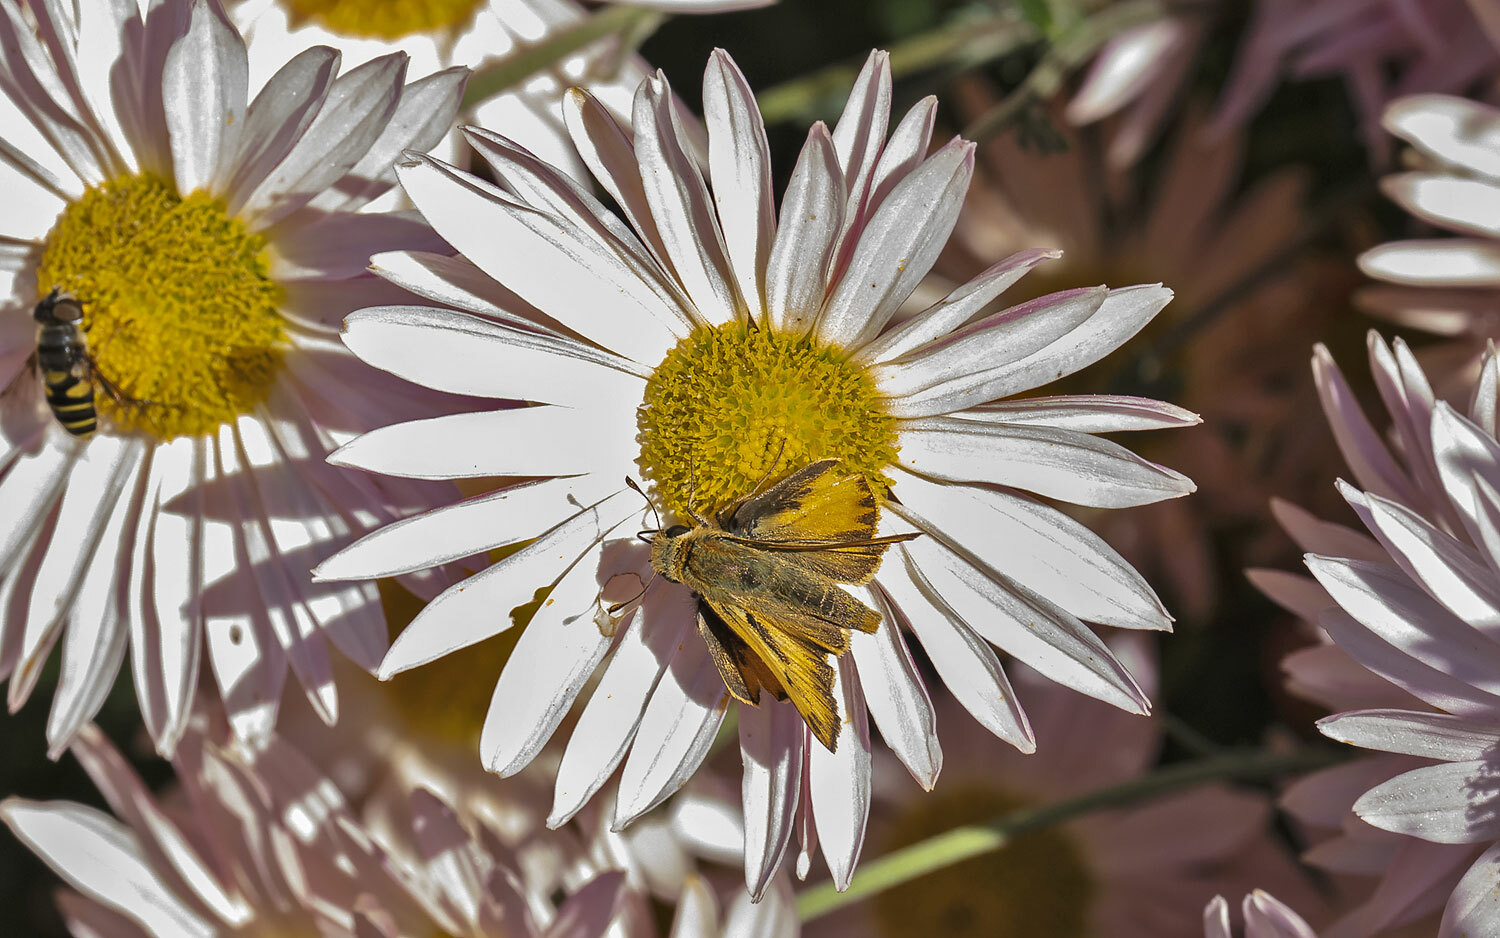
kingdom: Animalia
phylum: Arthropoda
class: Insecta
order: Lepidoptera
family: Hesperiidae
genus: Hylephila
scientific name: Hylephila phyleus
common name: Fiery skipper
